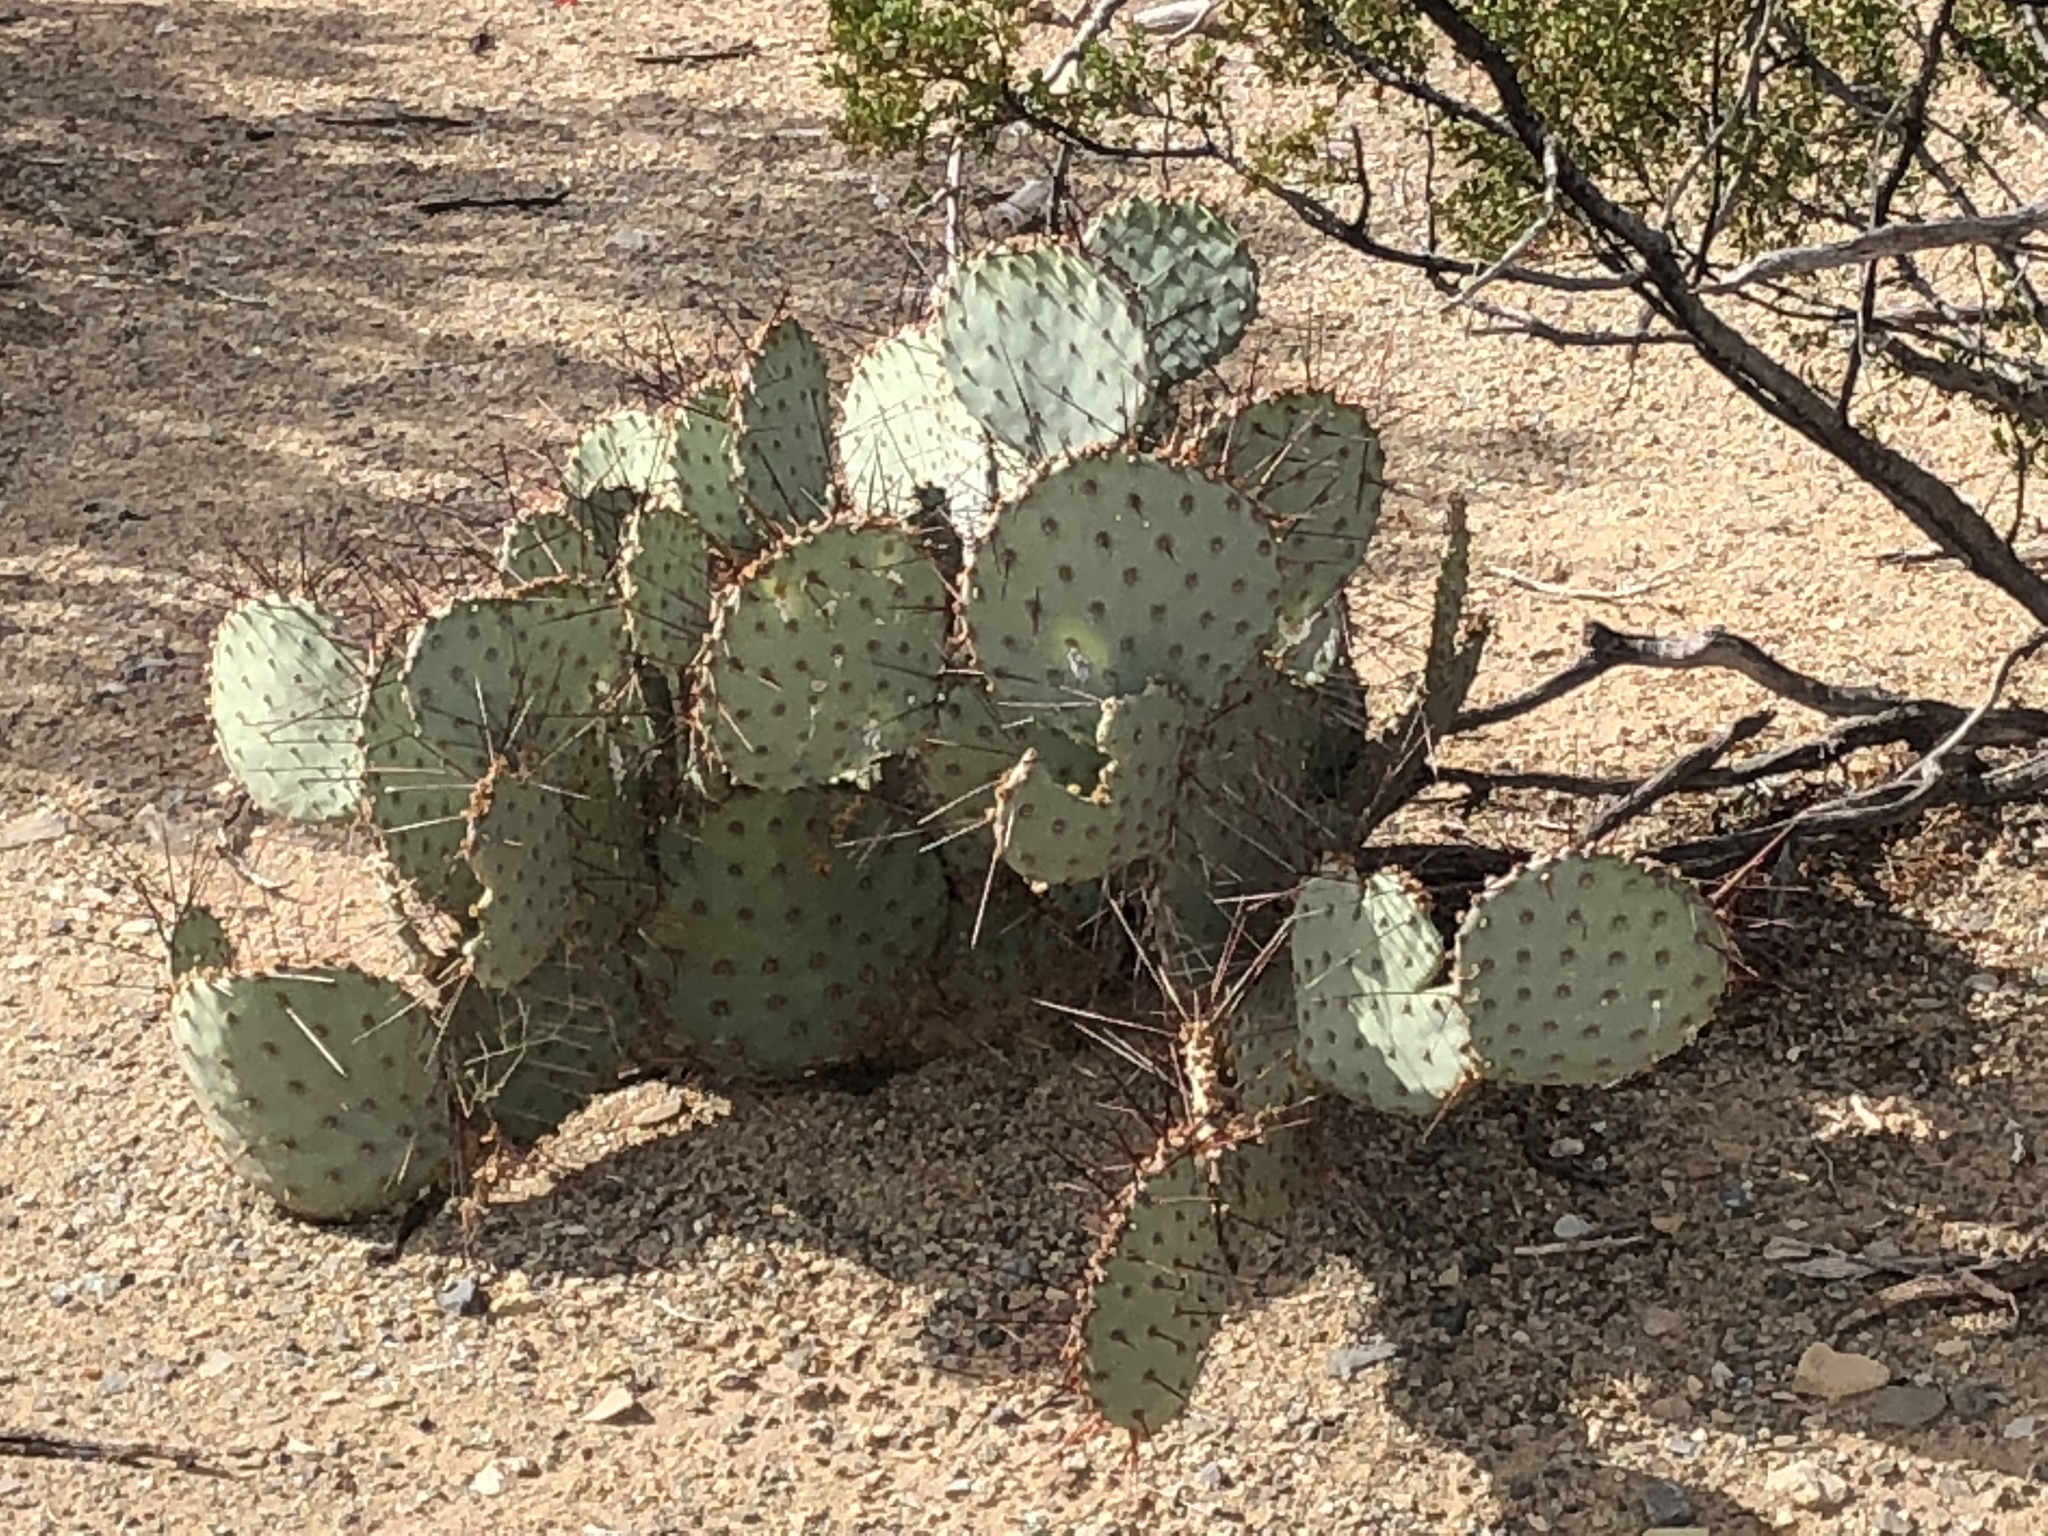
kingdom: Plantae
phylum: Tracheophyta
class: Magnoliopsida
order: Caryophyllales
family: Cactaceae
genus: Opuntia
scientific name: Opuntia macrocentra
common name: Purple prickly-pear
